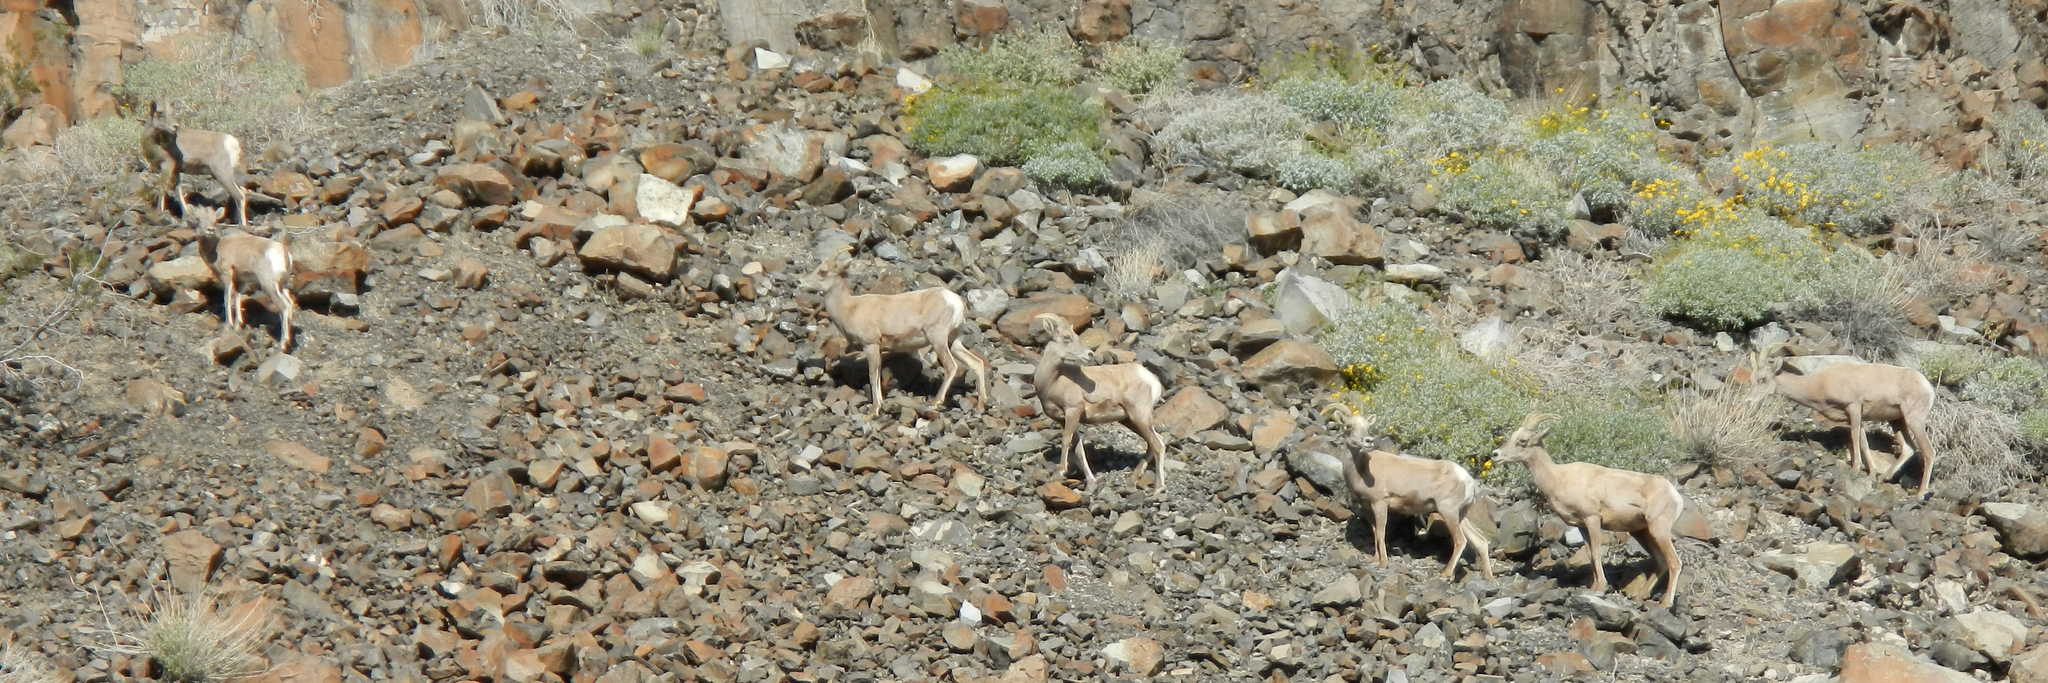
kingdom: Animalia
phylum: Chordata
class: Mammalia
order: Artiodactyla
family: Bovidae
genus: Ovis
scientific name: Ovis canadensis
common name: Bighorn sheep
